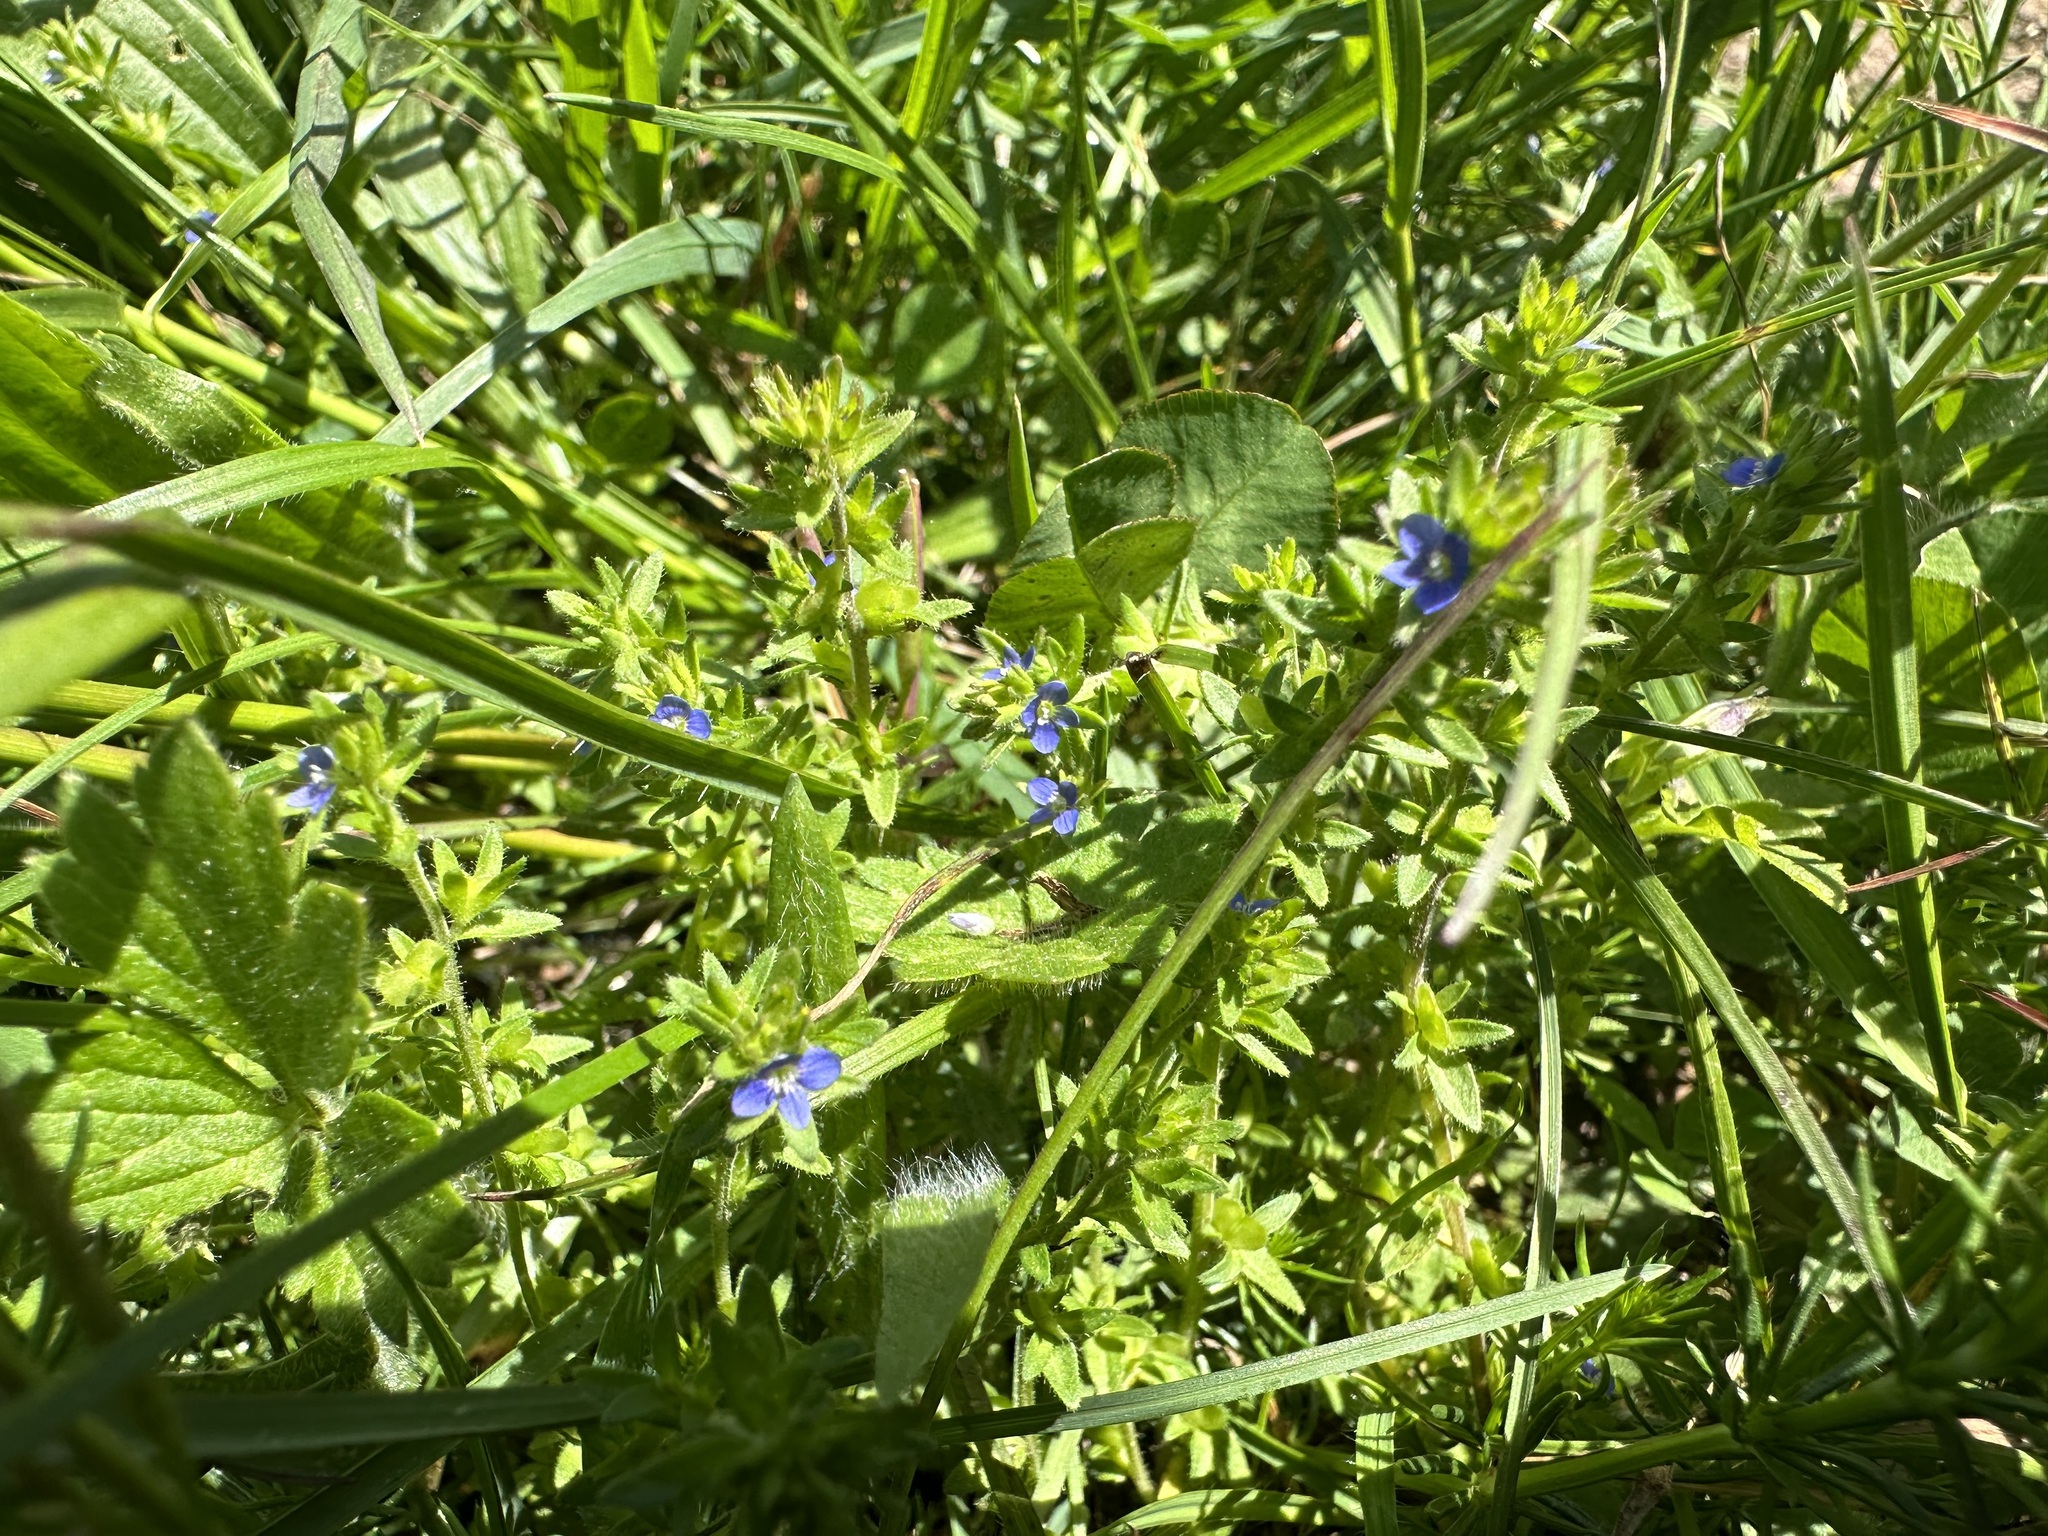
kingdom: Plantae
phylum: Tracheophyta
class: Magnoliopsida
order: Lamiales
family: Plantaginaceae
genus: Veronica
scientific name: Veronica arvensis
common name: Corn speedwell
